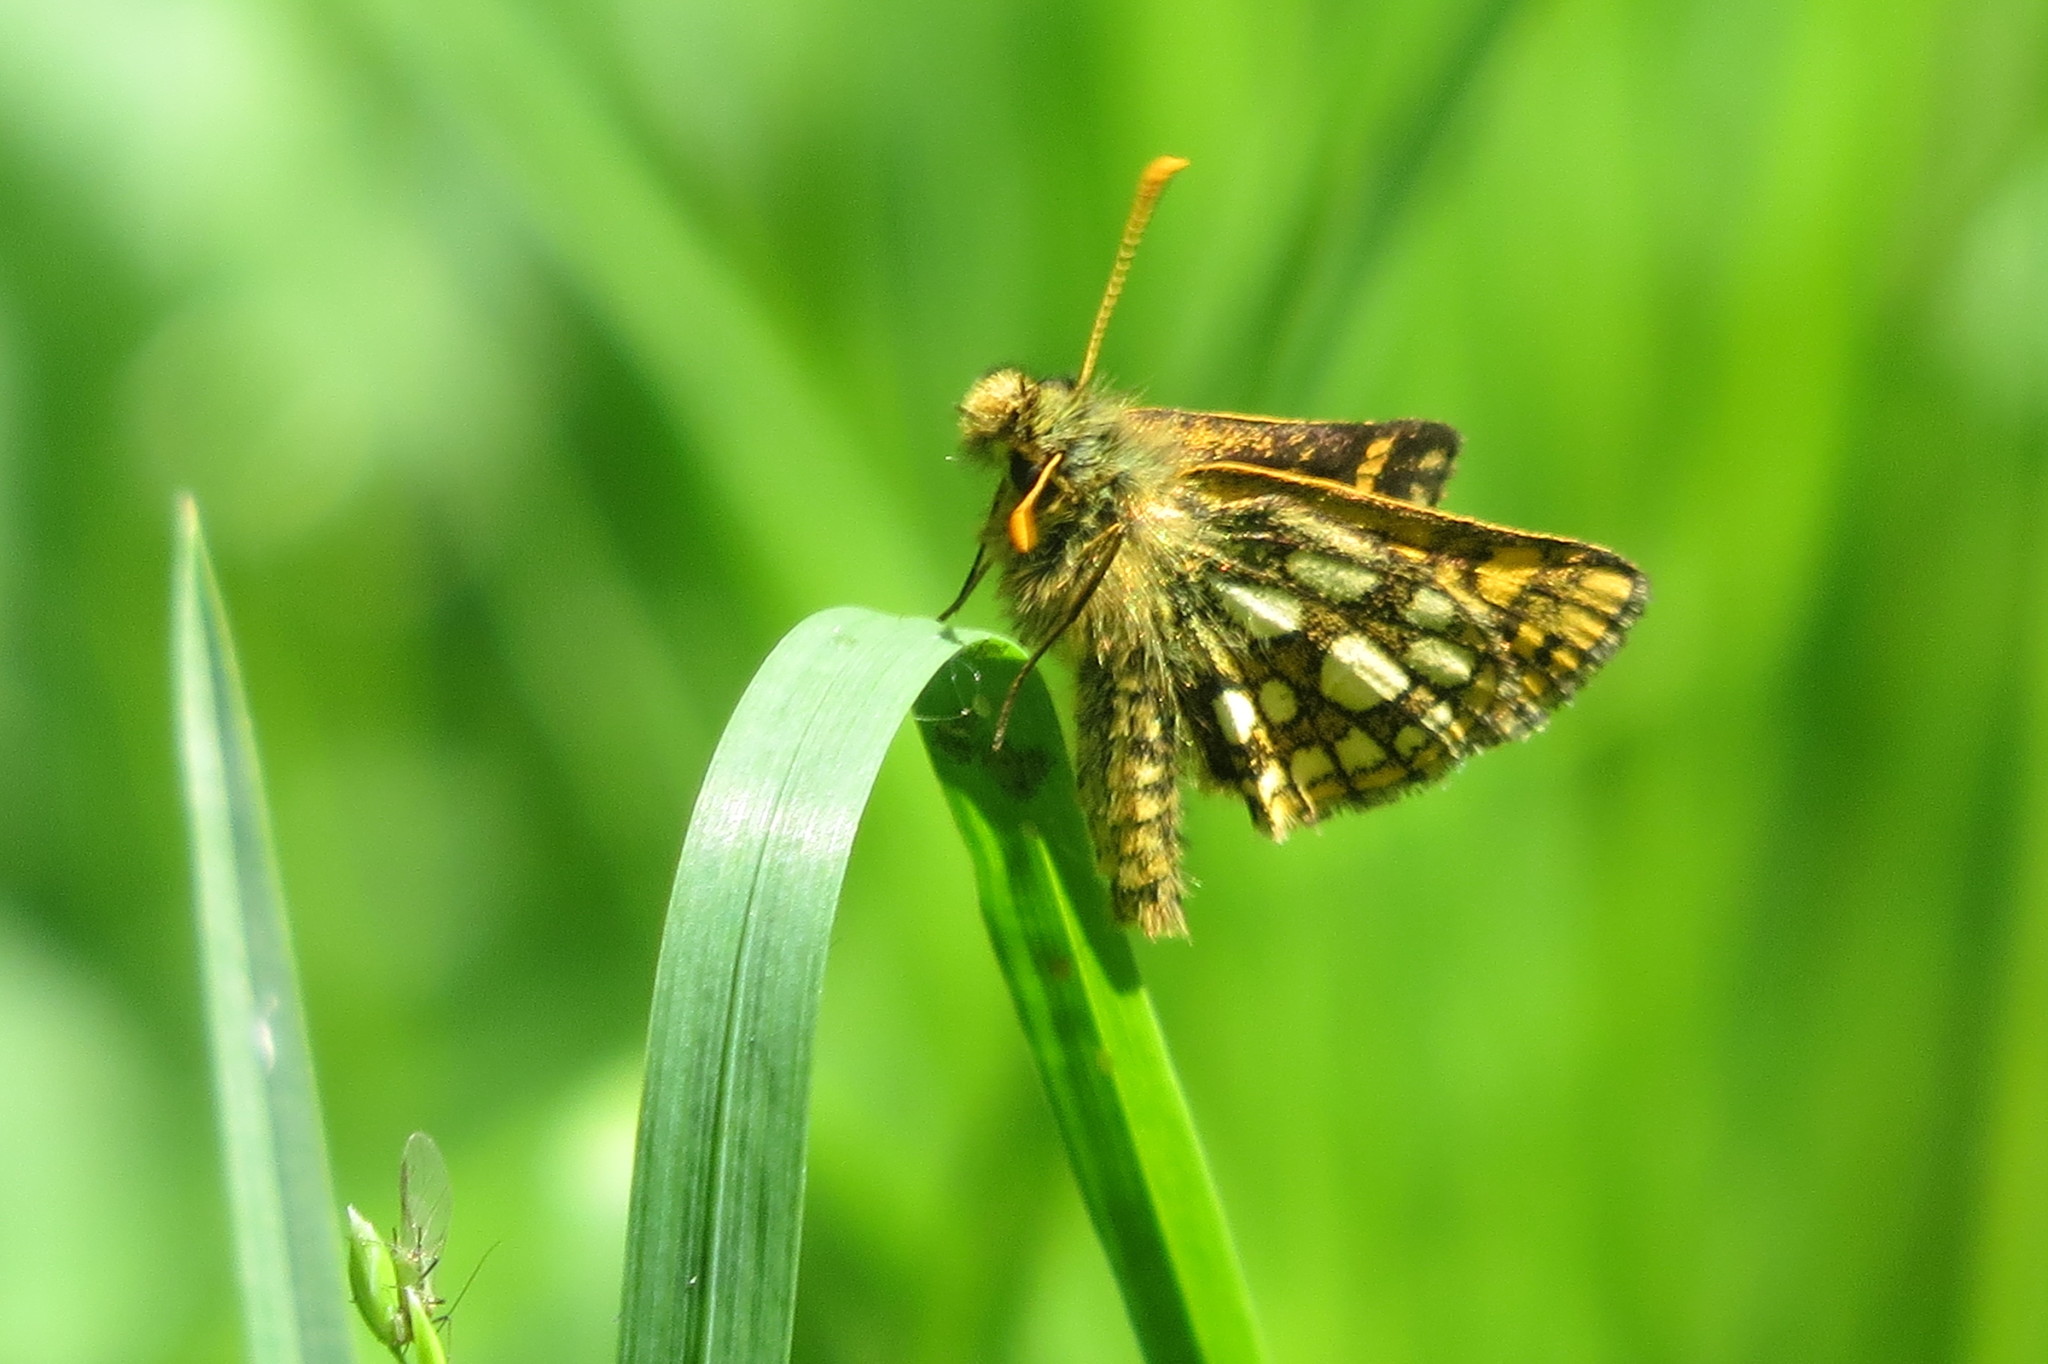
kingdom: Animalia
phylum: Arthropoda
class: Insecta
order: Lepidoptera
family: Hesperiidae
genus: Carterocephalus
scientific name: Carterocephalus palaemon
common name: Chequered skipper
